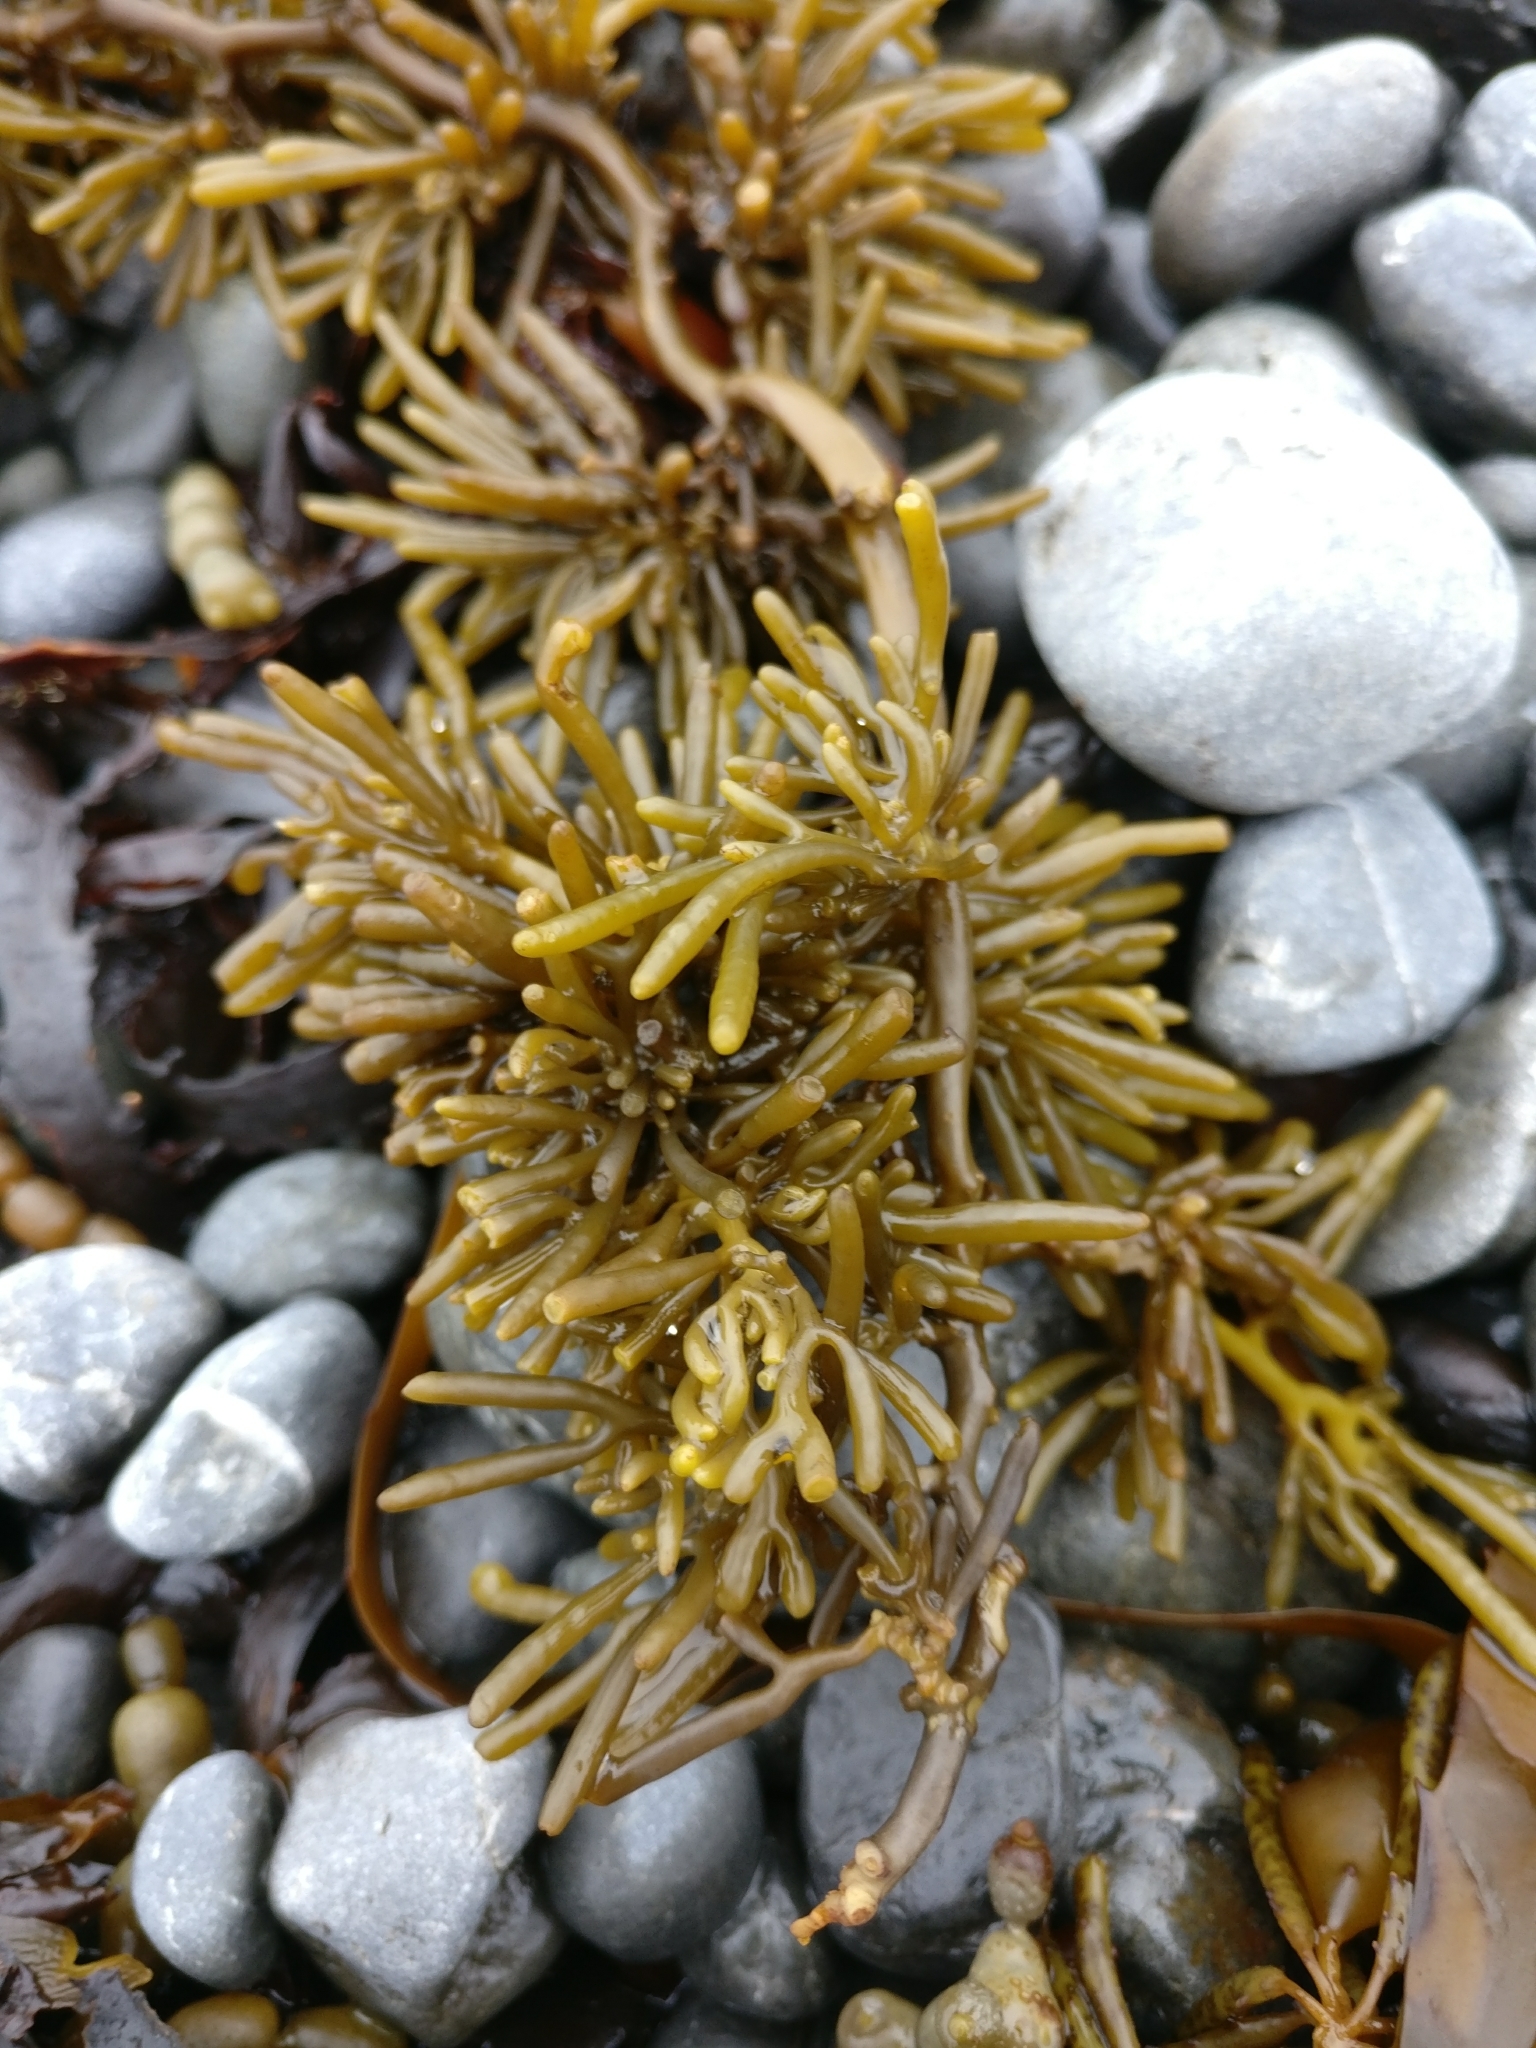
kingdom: Chromista
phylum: Ochrophyta
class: Phaeophyceae
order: Fucales
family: Sargassaceae
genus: Cystophora
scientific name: Cystophora torulosa
